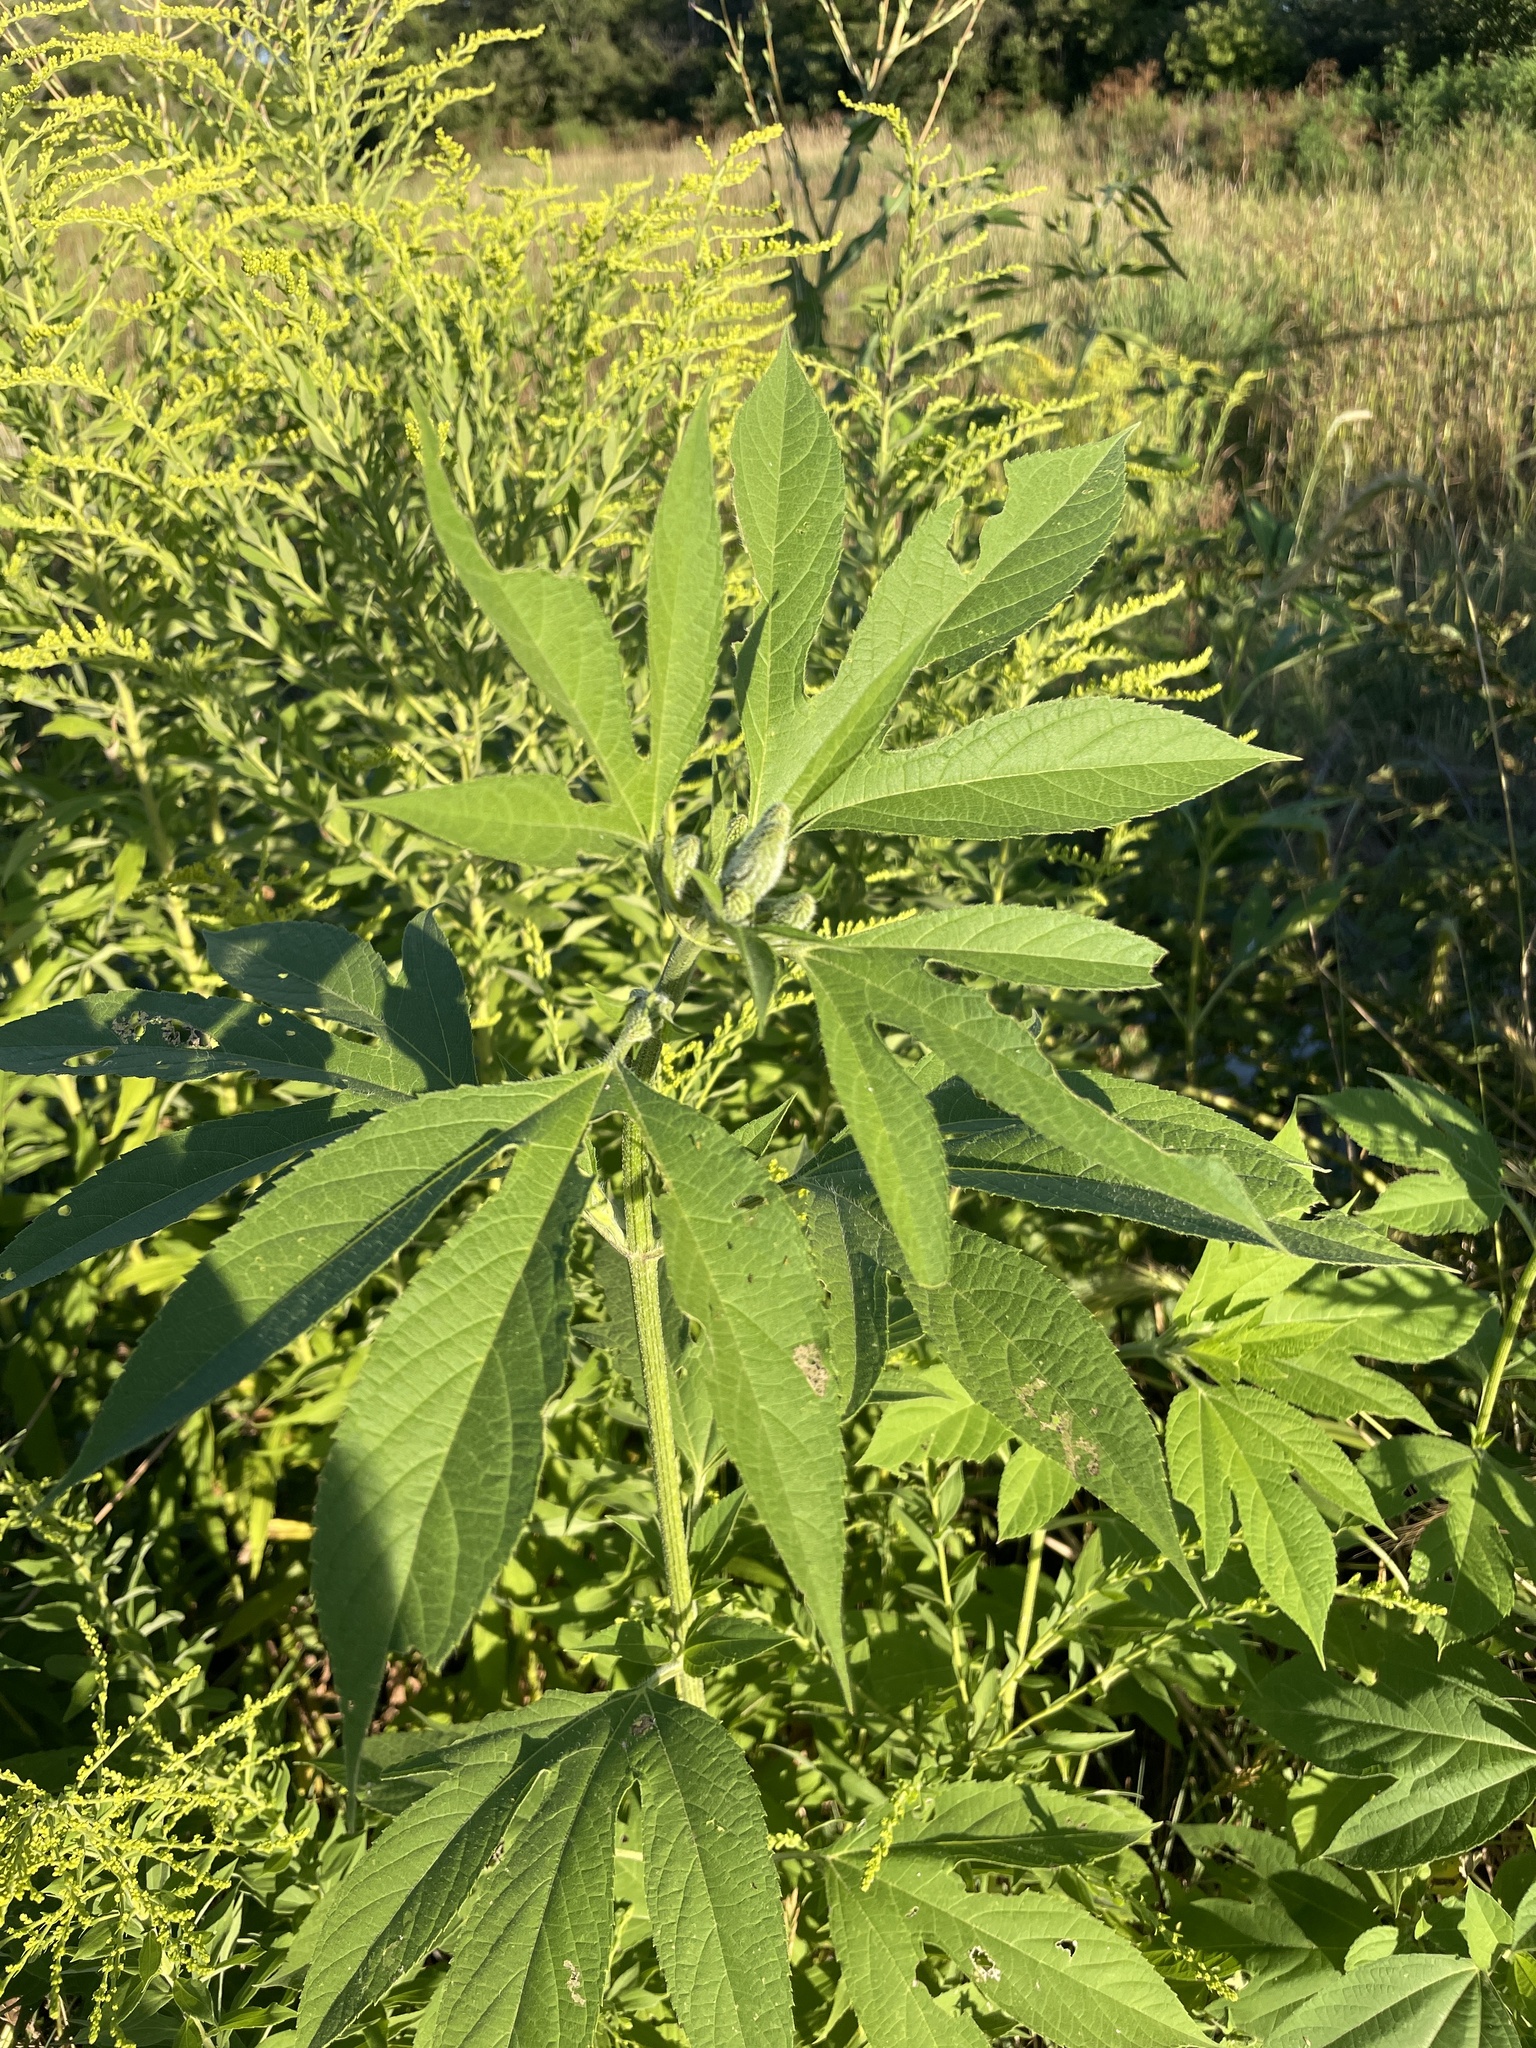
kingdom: Plantae
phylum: Tracheophyta
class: Magnoliopsida
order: Asterales
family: Asteraceae
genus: Ambrosia
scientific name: Ambrosia trifida
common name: Giant ragweed
